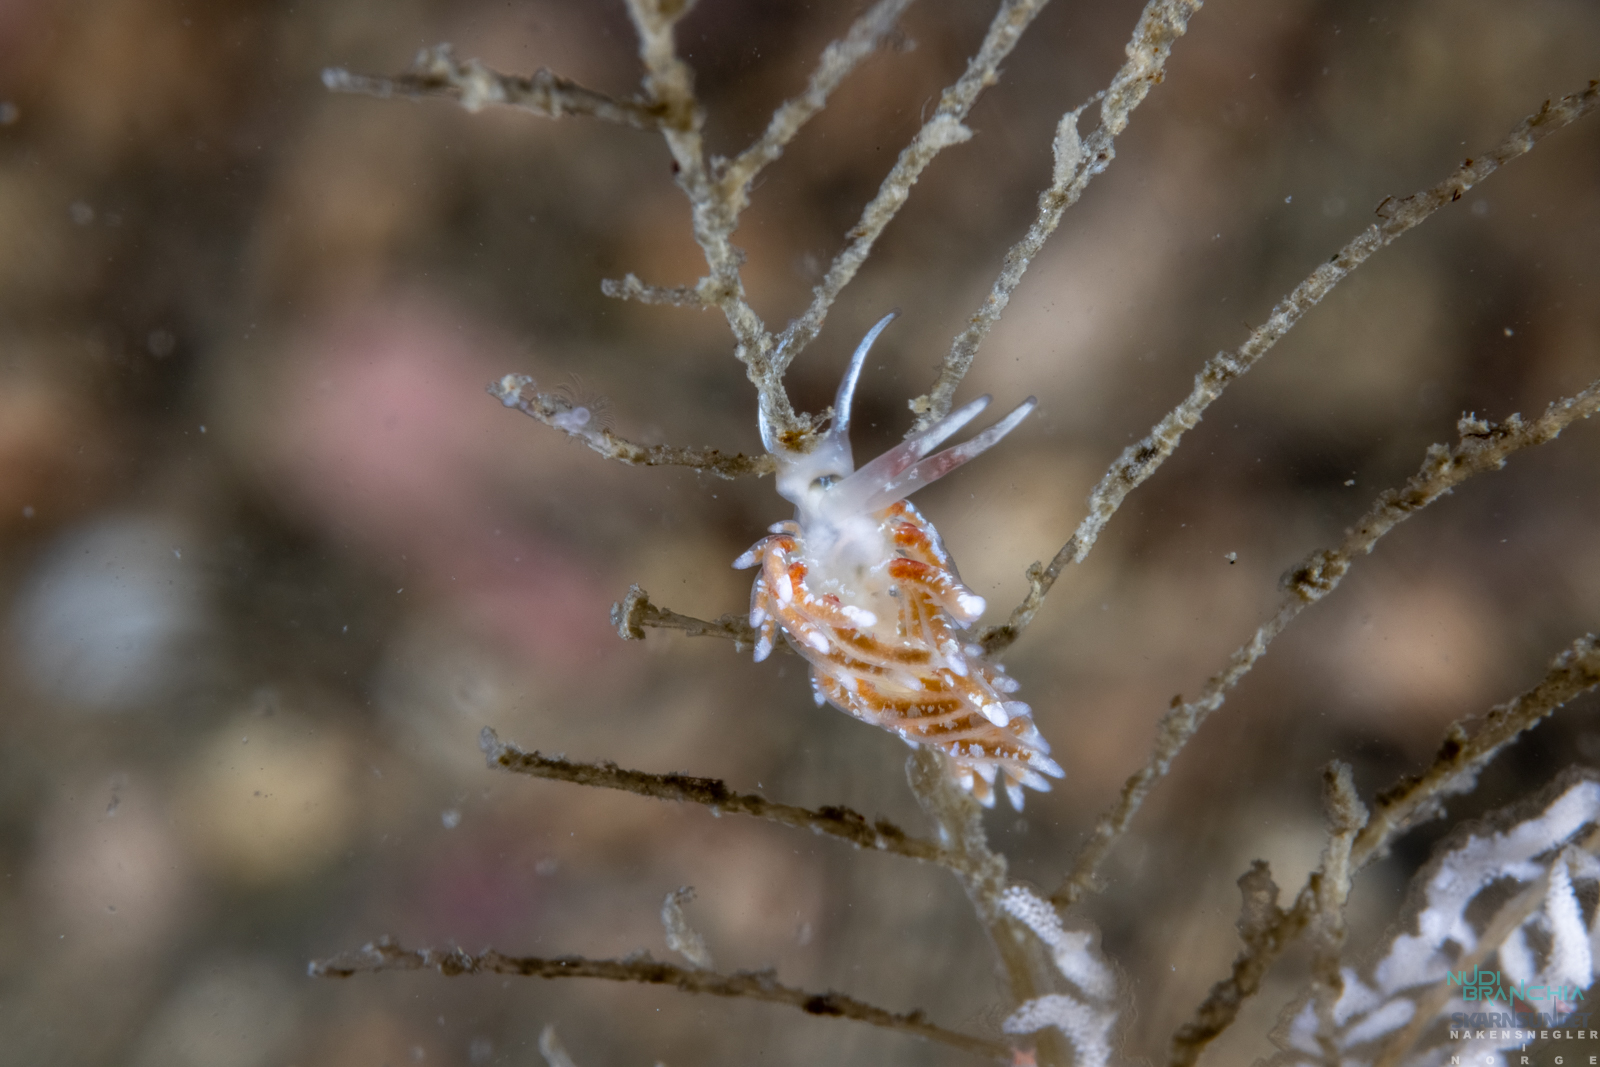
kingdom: Animalia
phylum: Mollusca
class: Gastropoda
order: Nudibranchia
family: Trinchesiidae
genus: Rubramoena
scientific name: Rubramoena rubescens
